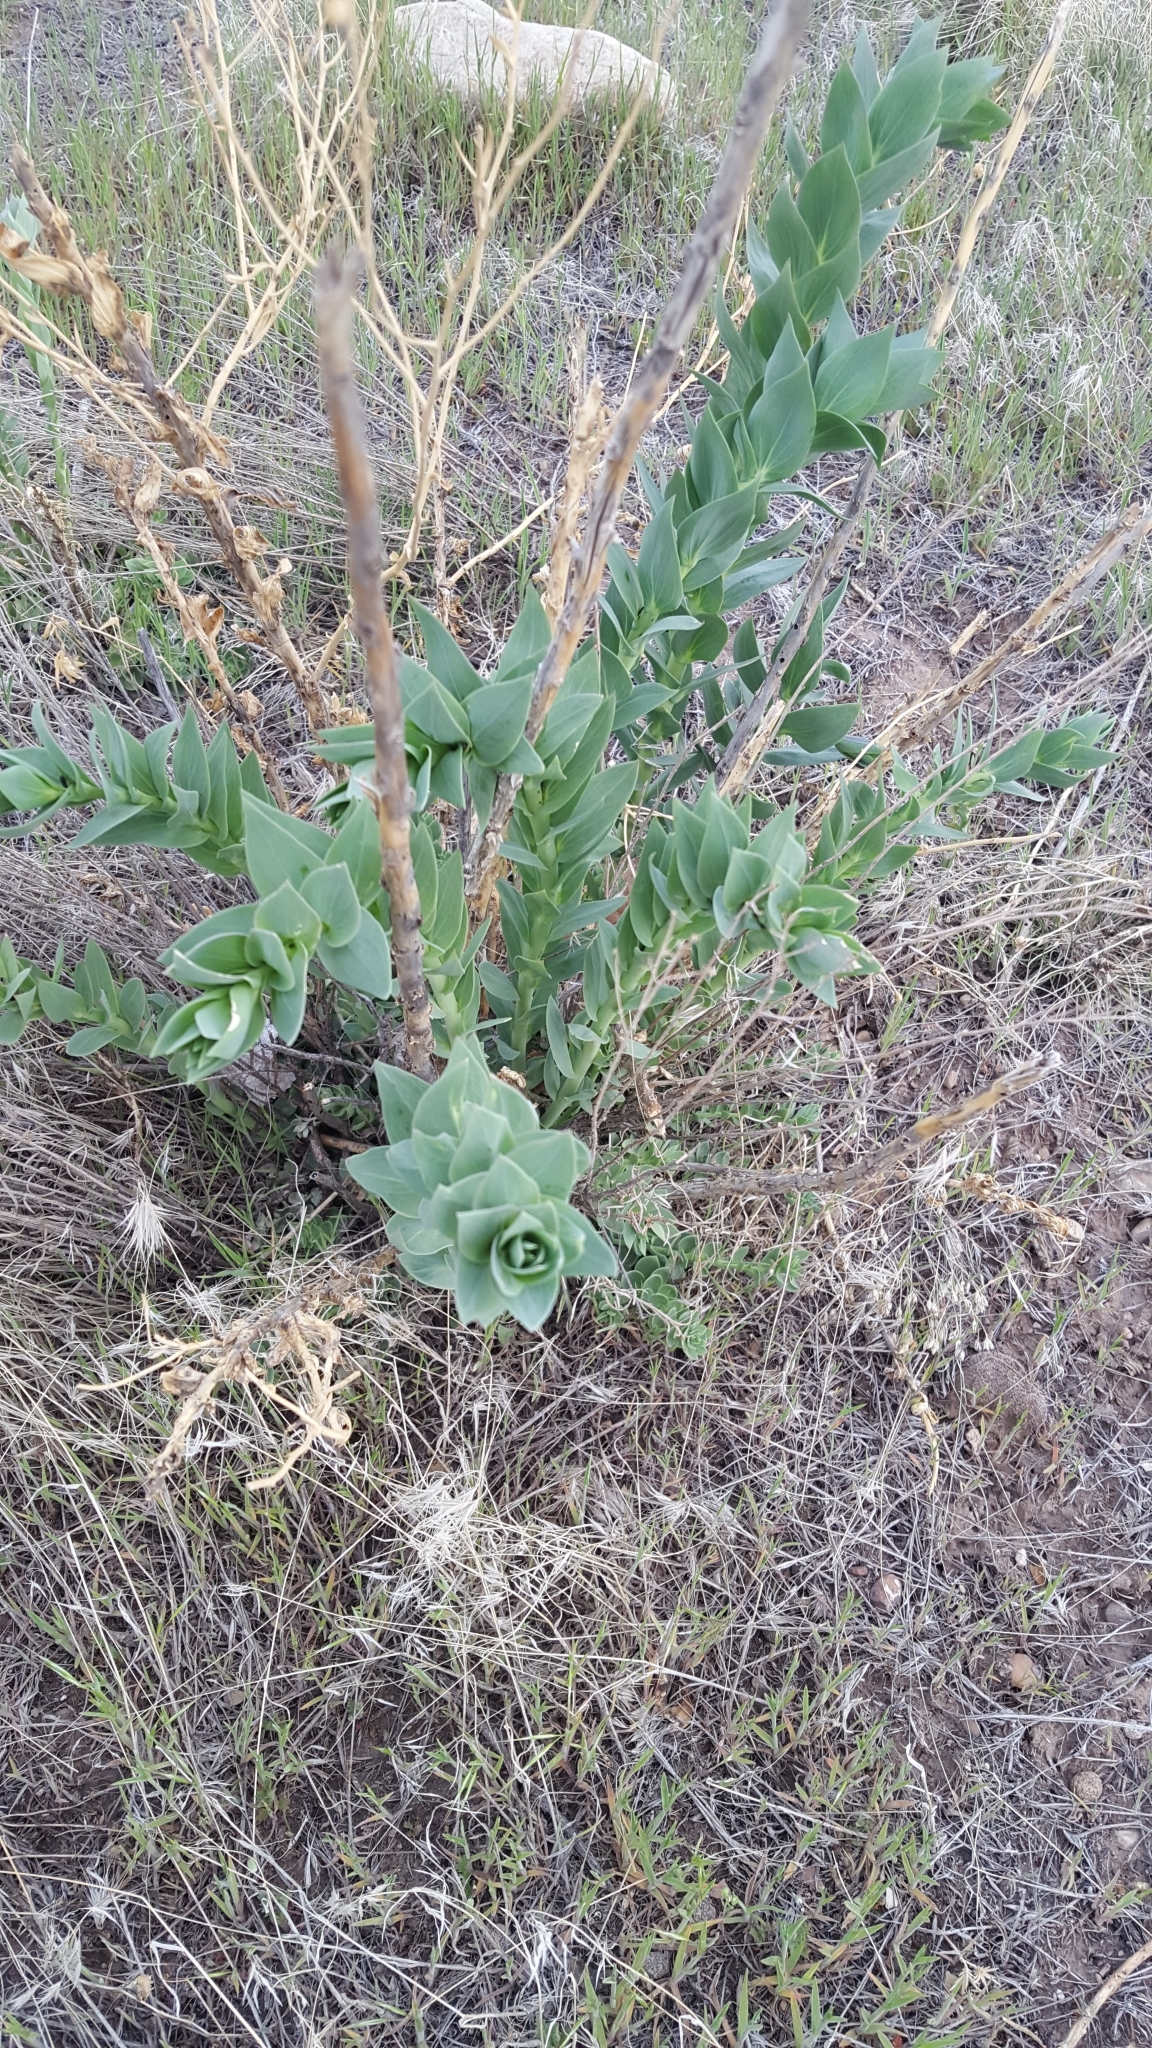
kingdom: Plantae
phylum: Tracheophyta
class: Magnoliopsida
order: Lamiales
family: Plantaginaceae
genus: Linaria
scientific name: Linaria dalmatica
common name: Dalmatian toadflax
